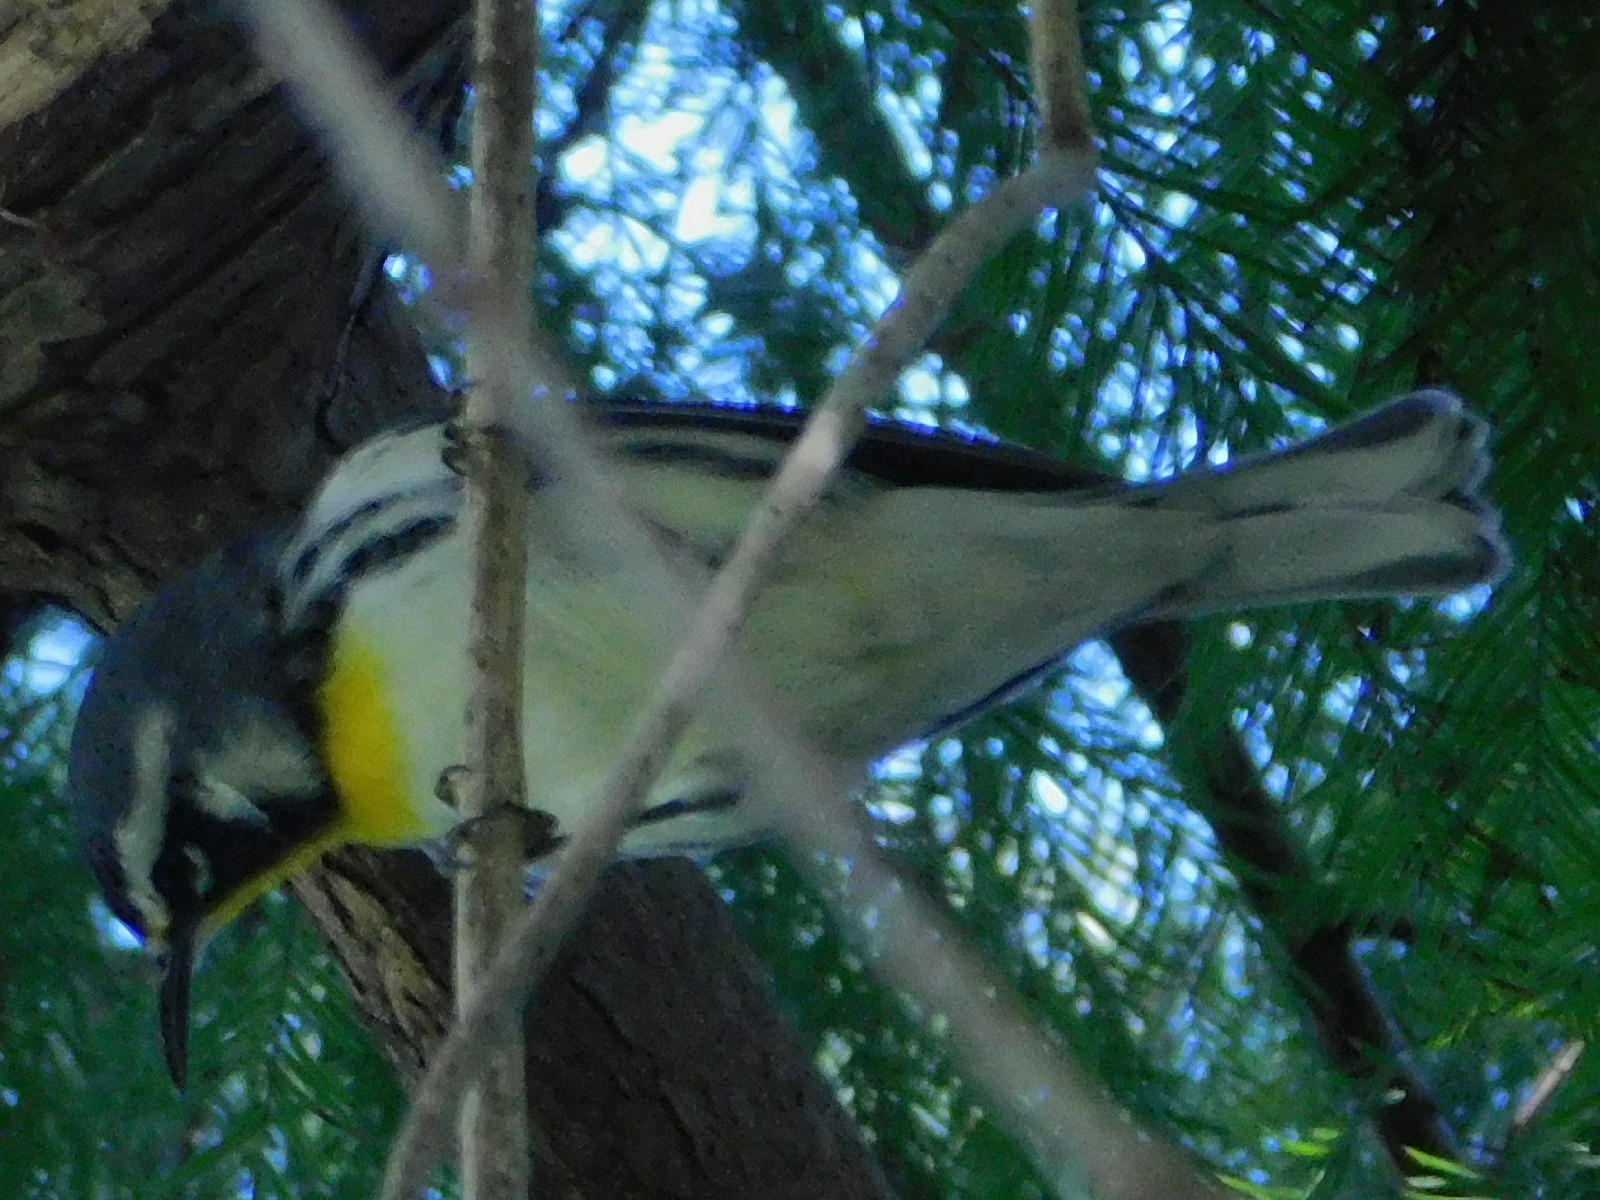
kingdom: Animalia
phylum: Chordata
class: Aves
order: Passeriformes
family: Parulidae
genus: Setophaga
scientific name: Setophaga dominica
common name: Yellow-throated warbler
